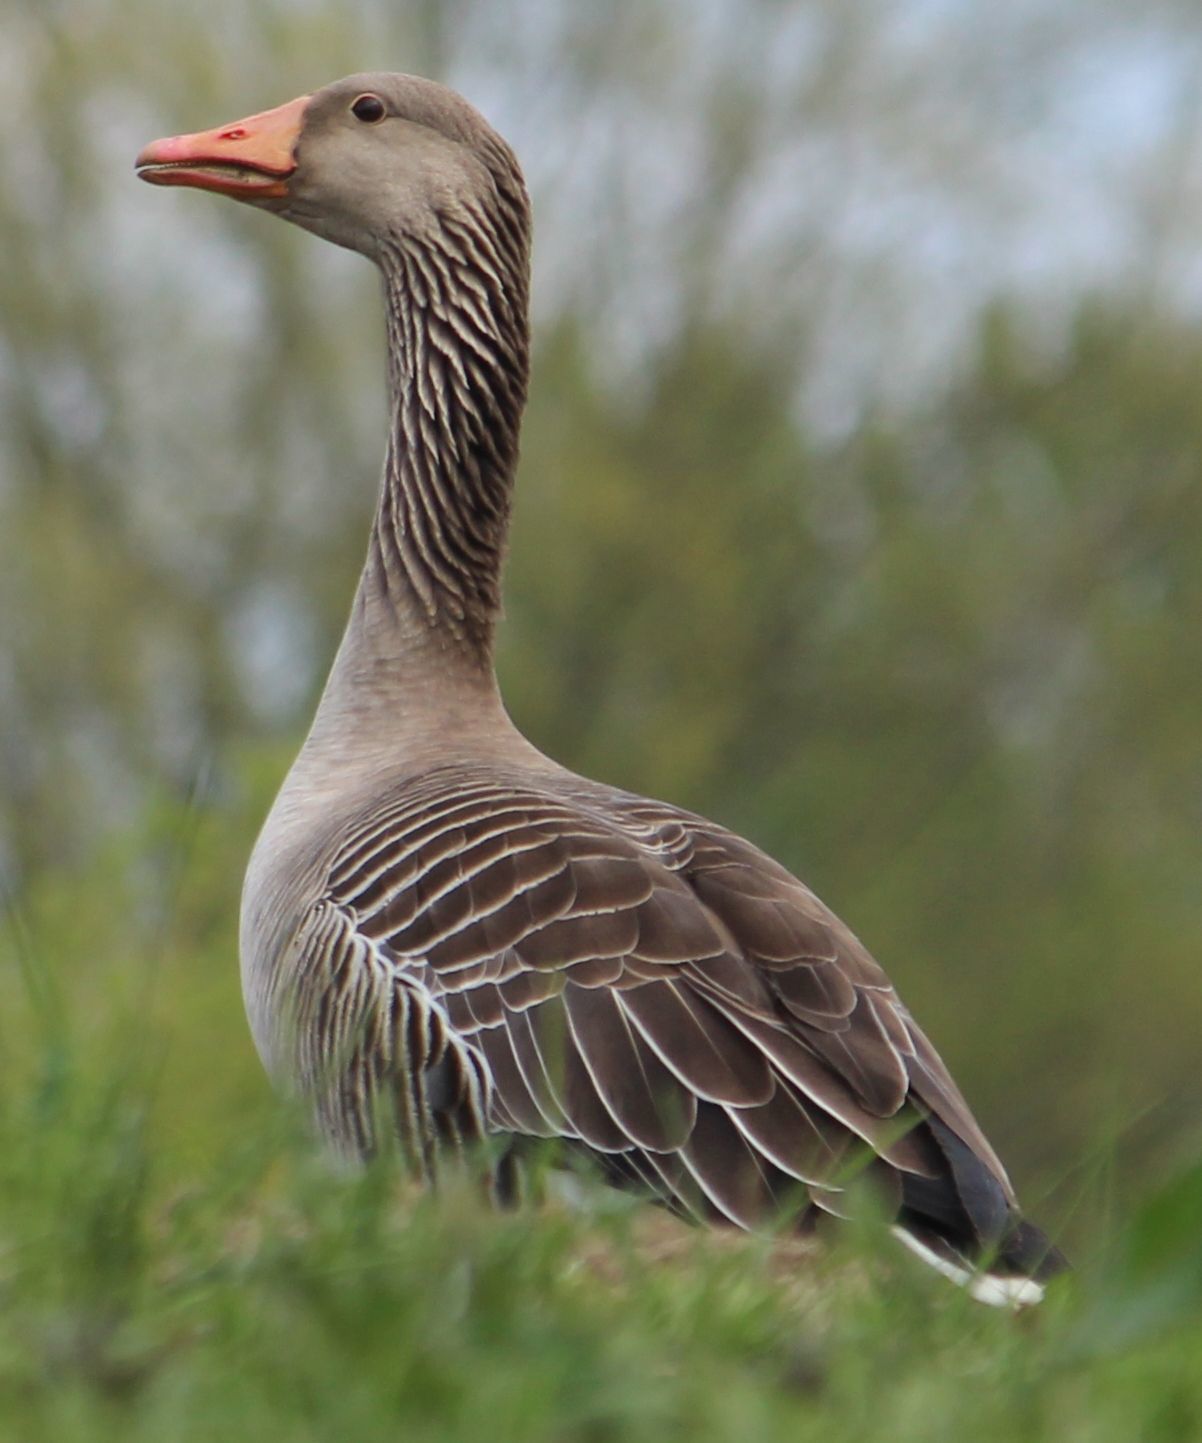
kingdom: Animalia
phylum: Chordata
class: Aves
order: Anseriformes
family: Anatidae
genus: Anser
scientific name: Anser anser
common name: Greylag goose
